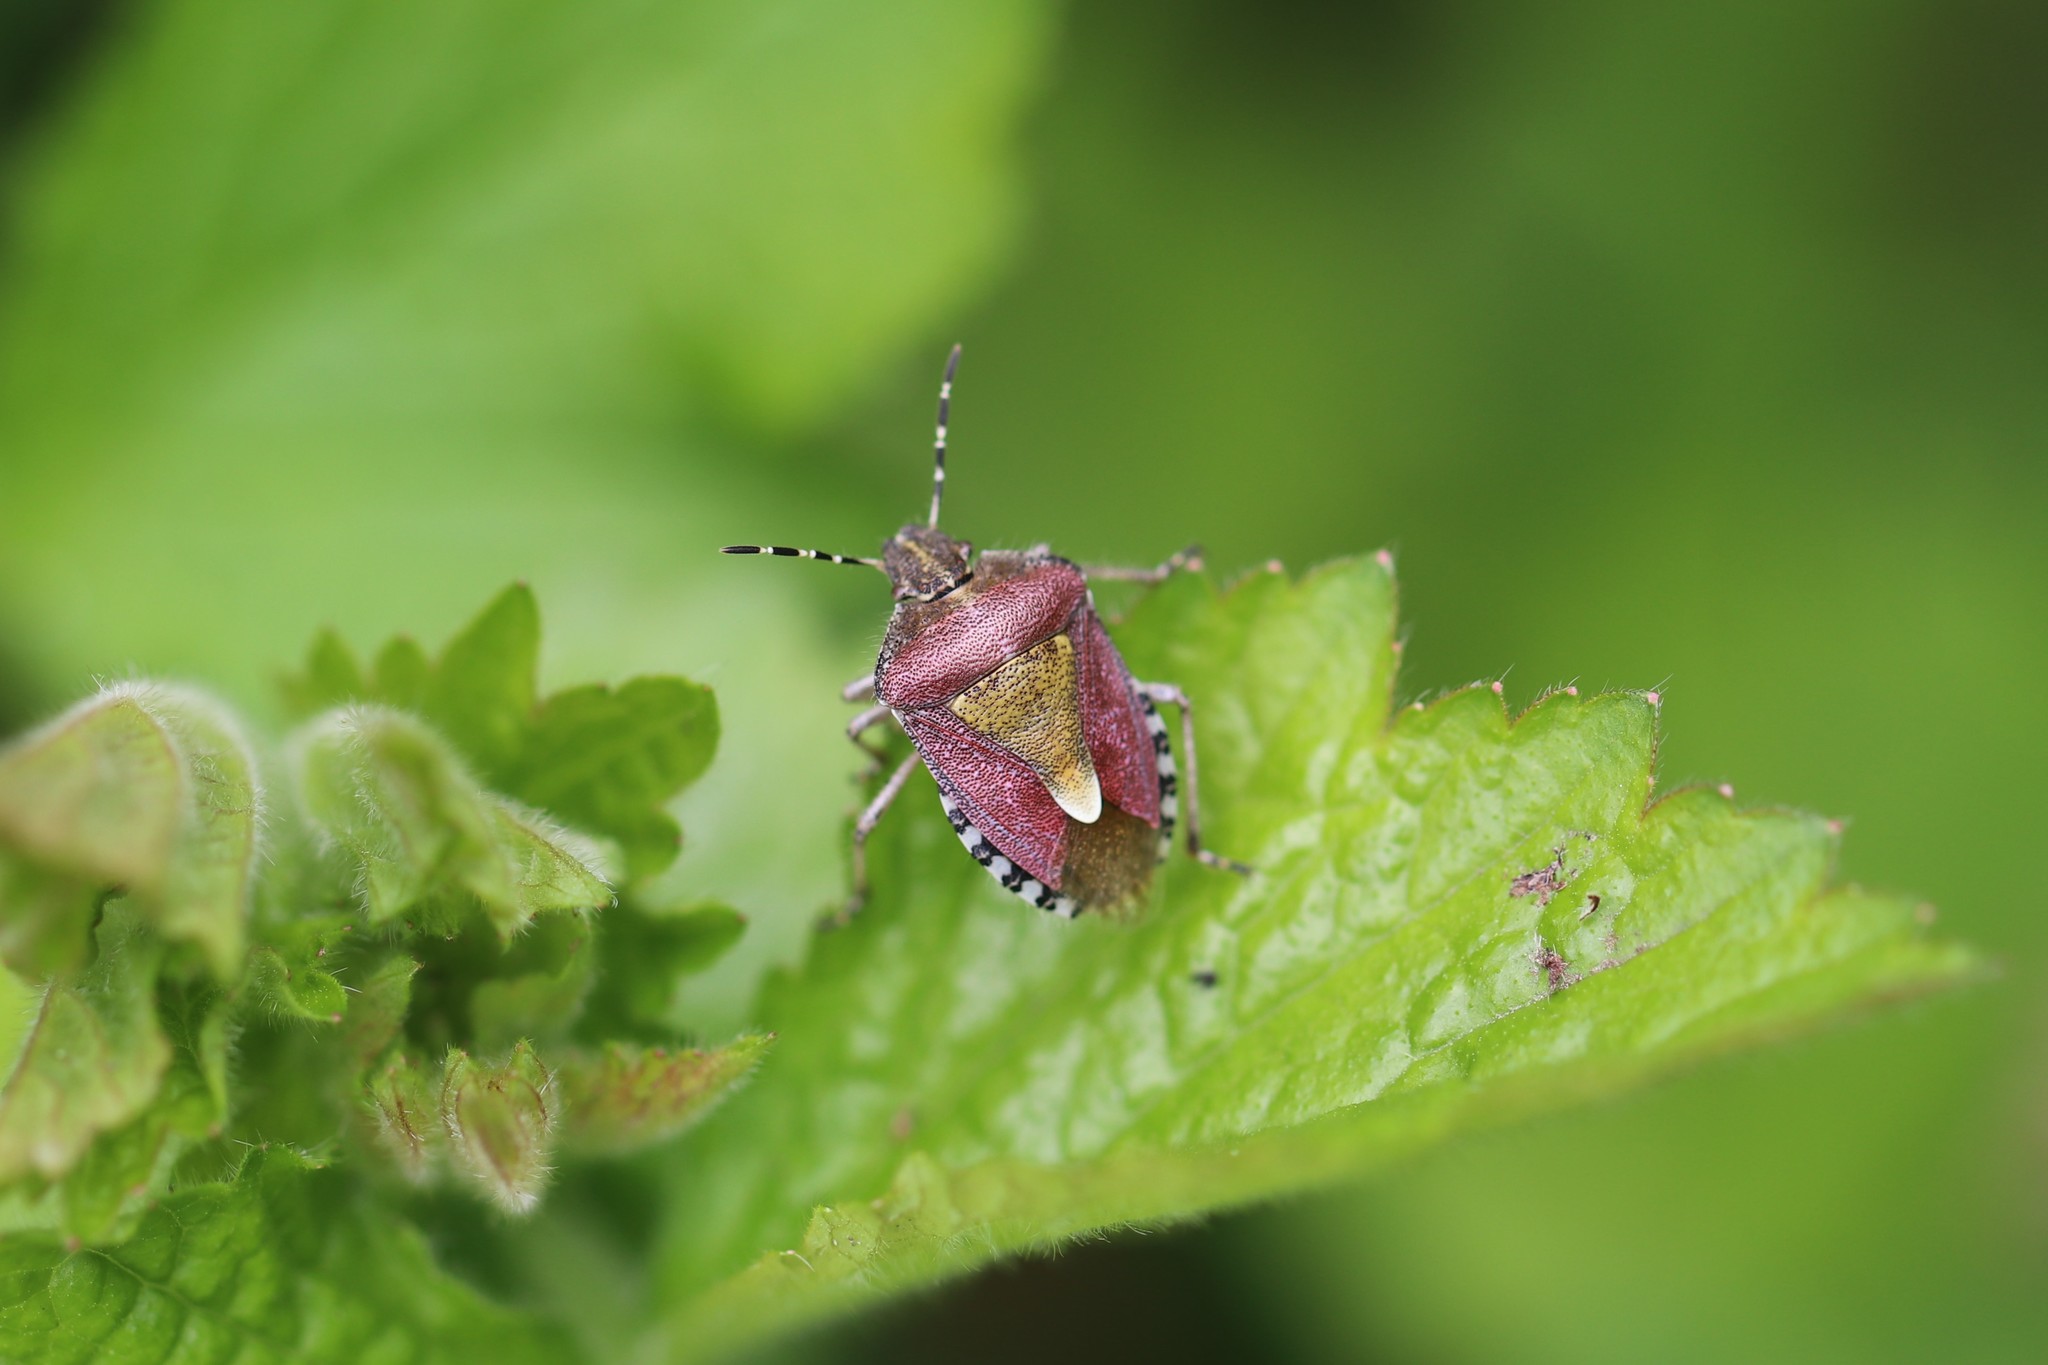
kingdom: Animalia
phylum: Arthropoda
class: Insecta
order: Hemiptera
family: Pentatomidae
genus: Dolycoris
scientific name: Dolycoris baccarum
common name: Sloe bug
